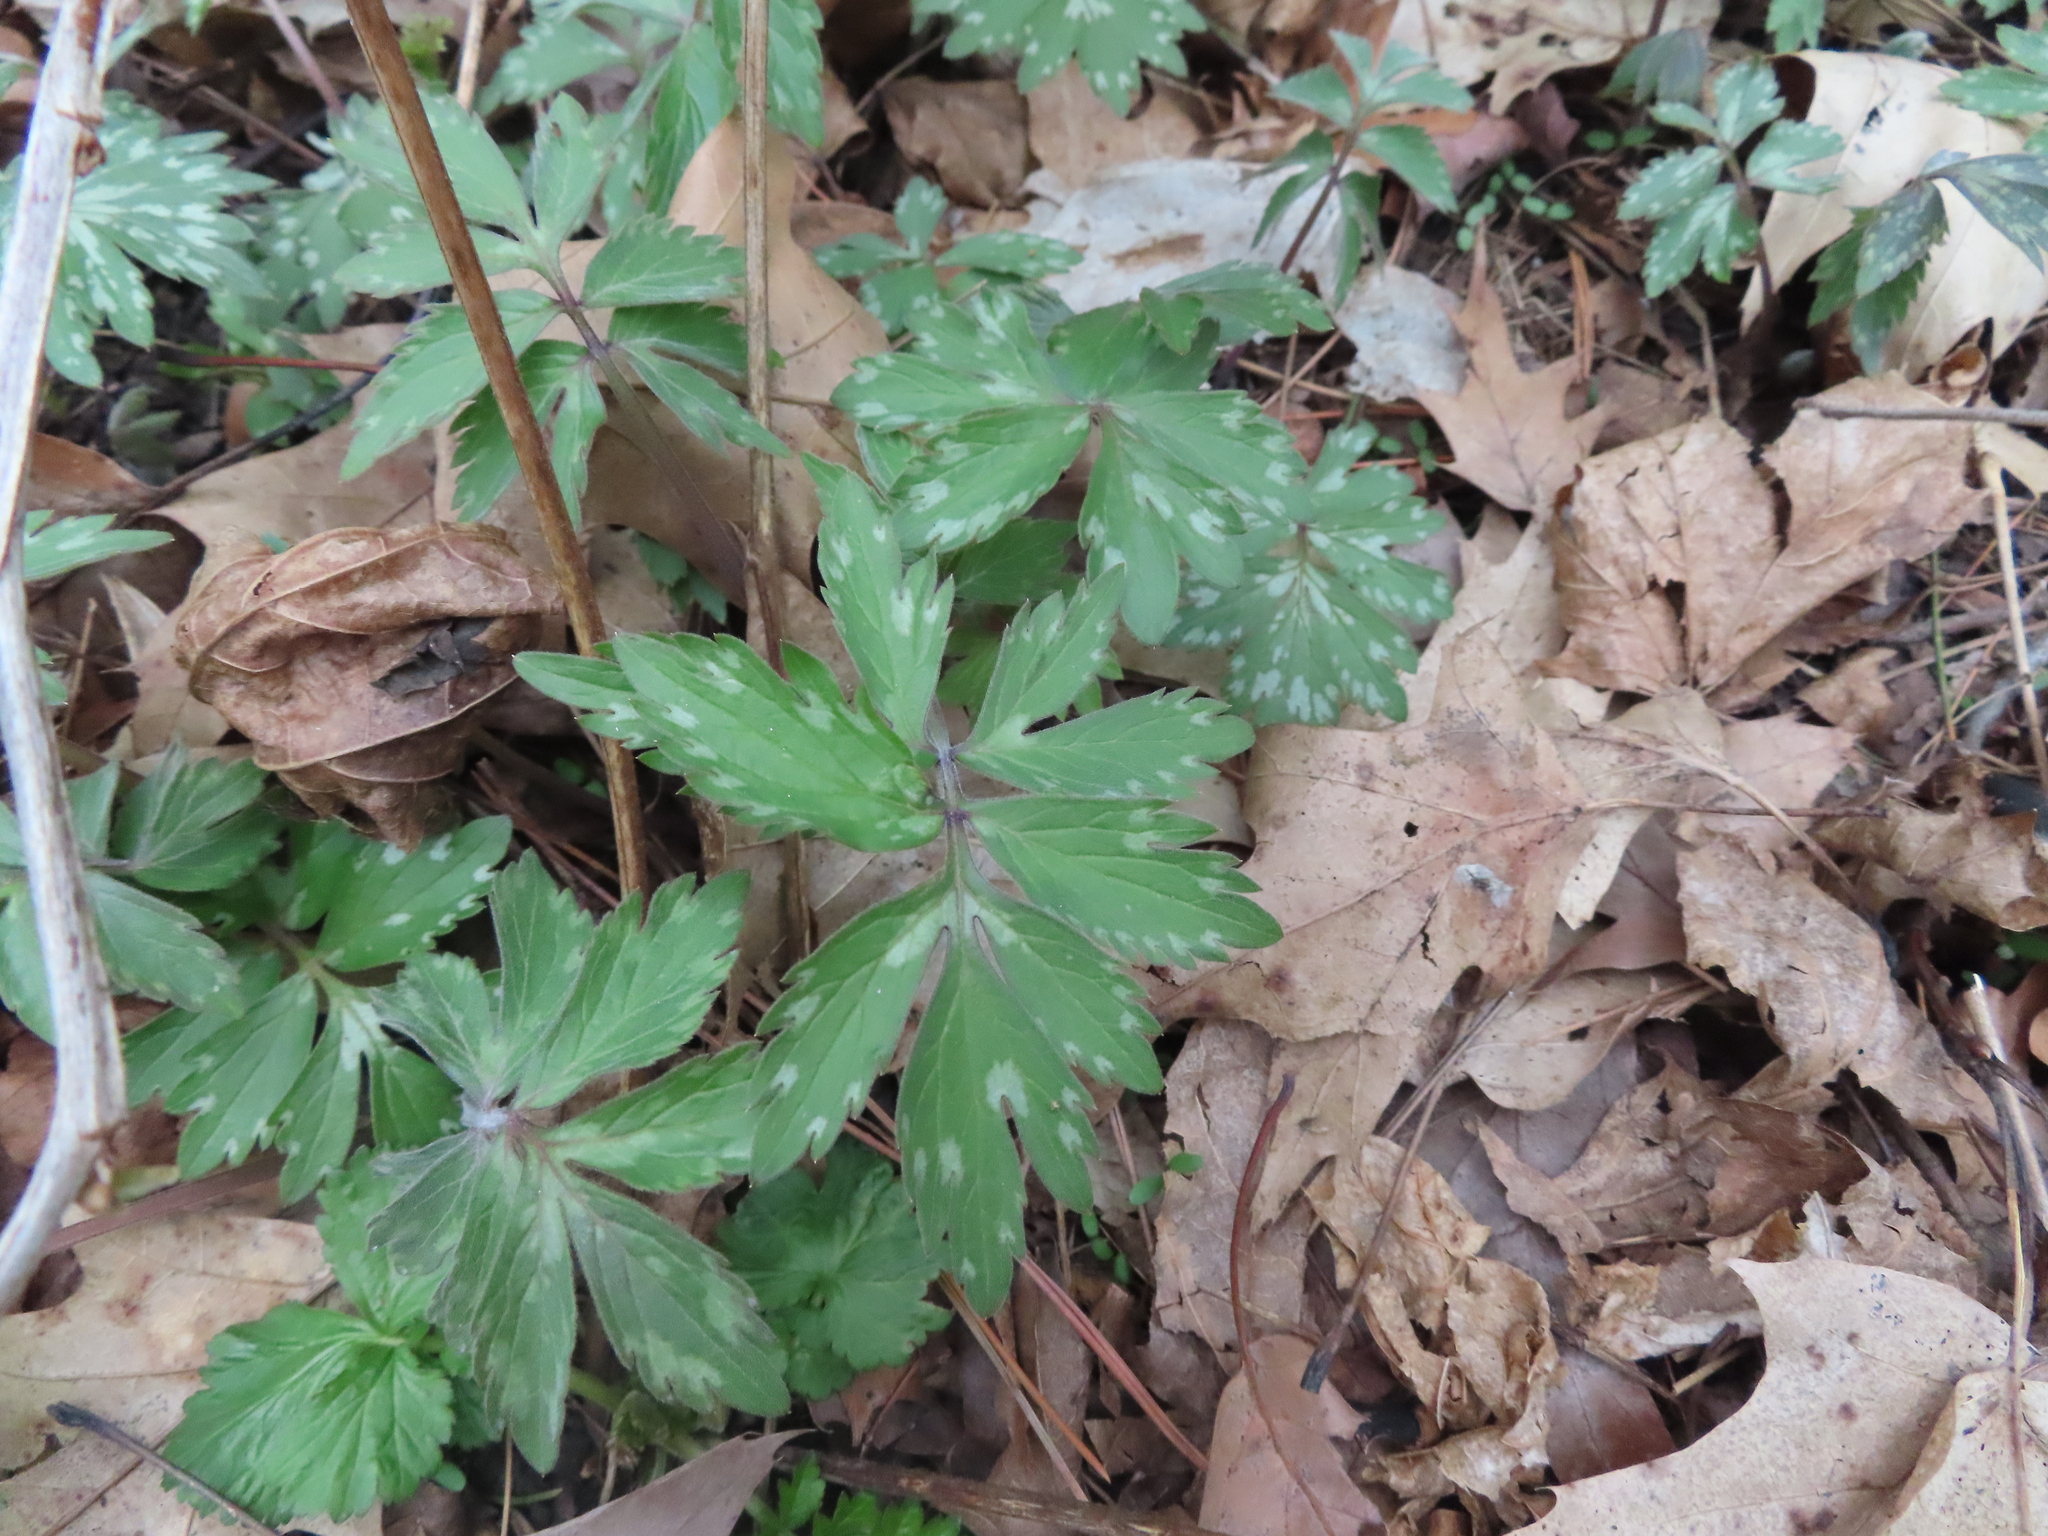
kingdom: Plantae
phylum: Tracheophyta
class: Magnoliopsida
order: Boraginales
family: Hydrophyllaceae
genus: Hydrophyllum
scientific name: Hydrophyllum virginianum
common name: Virginia waterleaf
